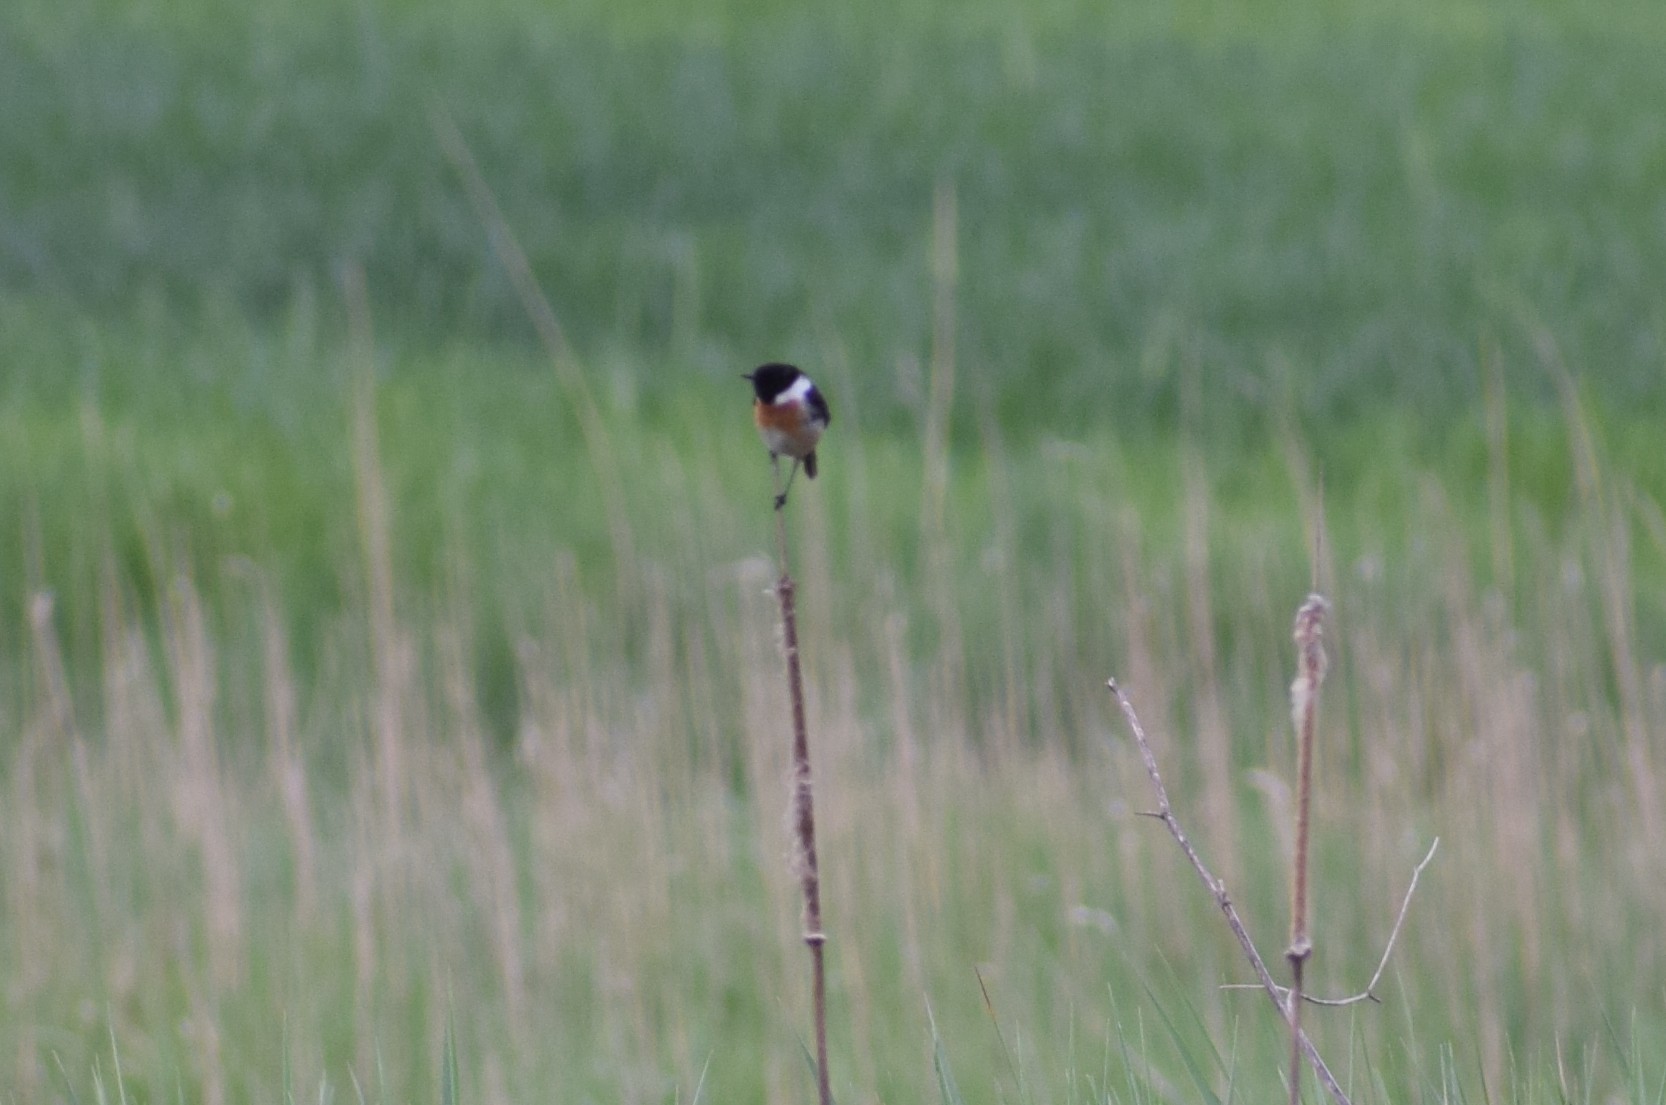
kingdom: Animalia
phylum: Chordata
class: Aves
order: Passeriformes
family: Muscicapidae
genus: Saxicola
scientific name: Saxicola rubicola
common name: European stonechat
